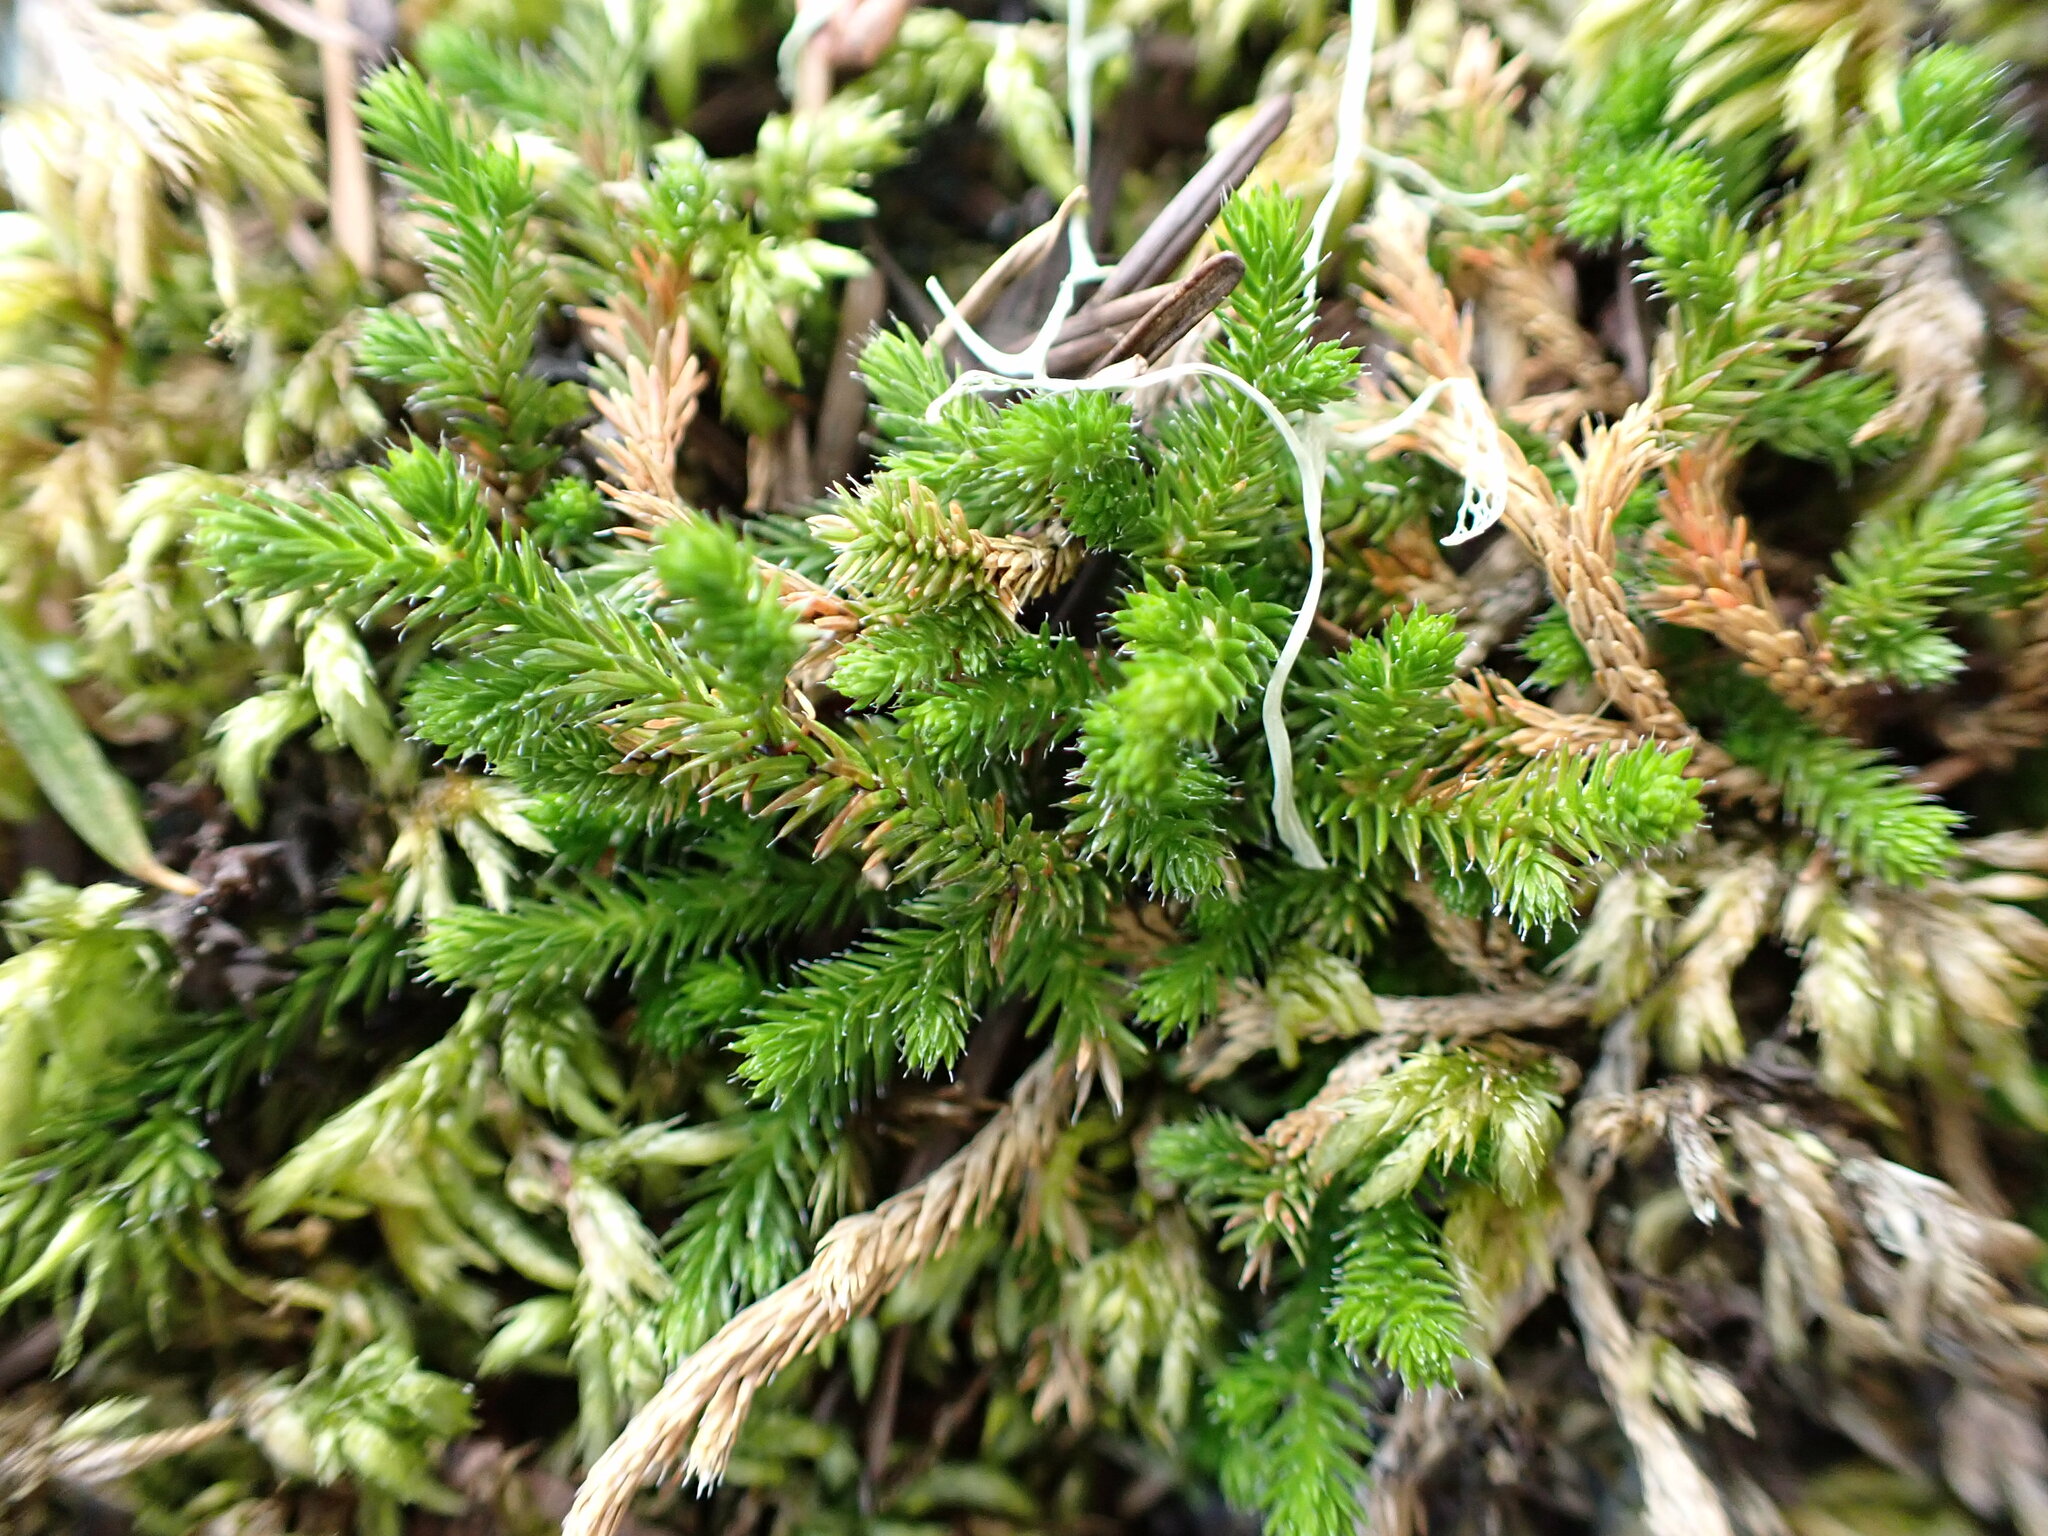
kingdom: Plantae
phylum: Tracheophyta
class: Lycopodiopsida
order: Selaginellales
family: Selaginellaceae
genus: Selaginella
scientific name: Selaginella wallacei
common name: Wallace's selaginella
